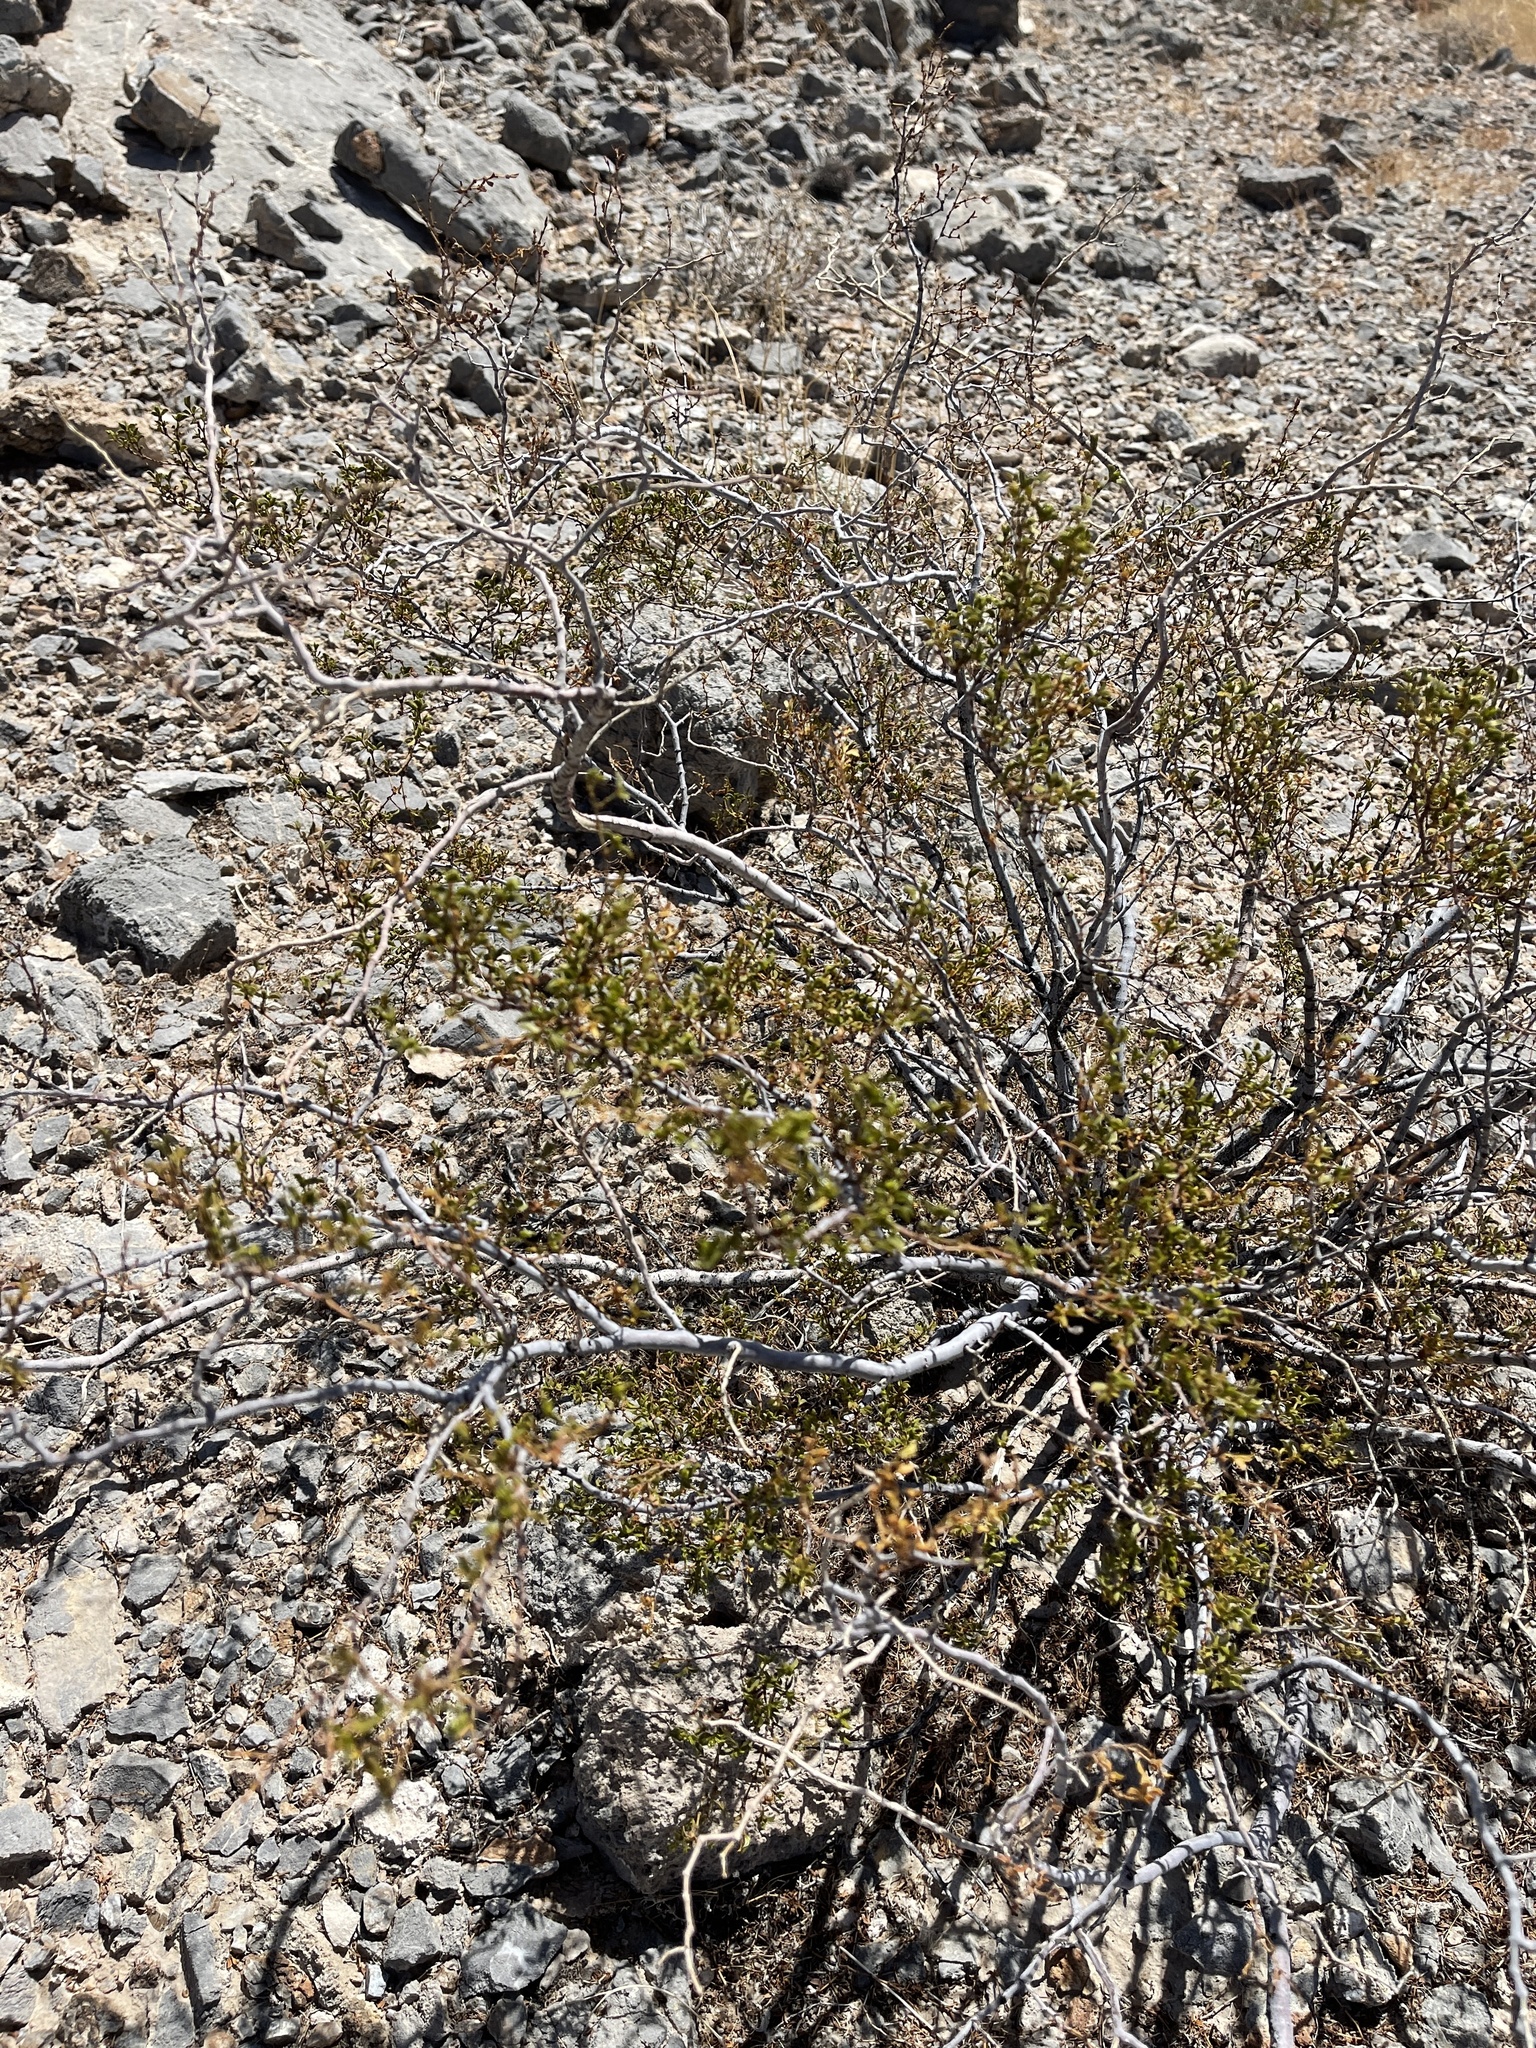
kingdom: Plantae
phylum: Tracheophyta
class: Magnoliopsida
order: Zygophyllales
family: Zygophyllaceae
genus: Larrea
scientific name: Larrea tridentata
